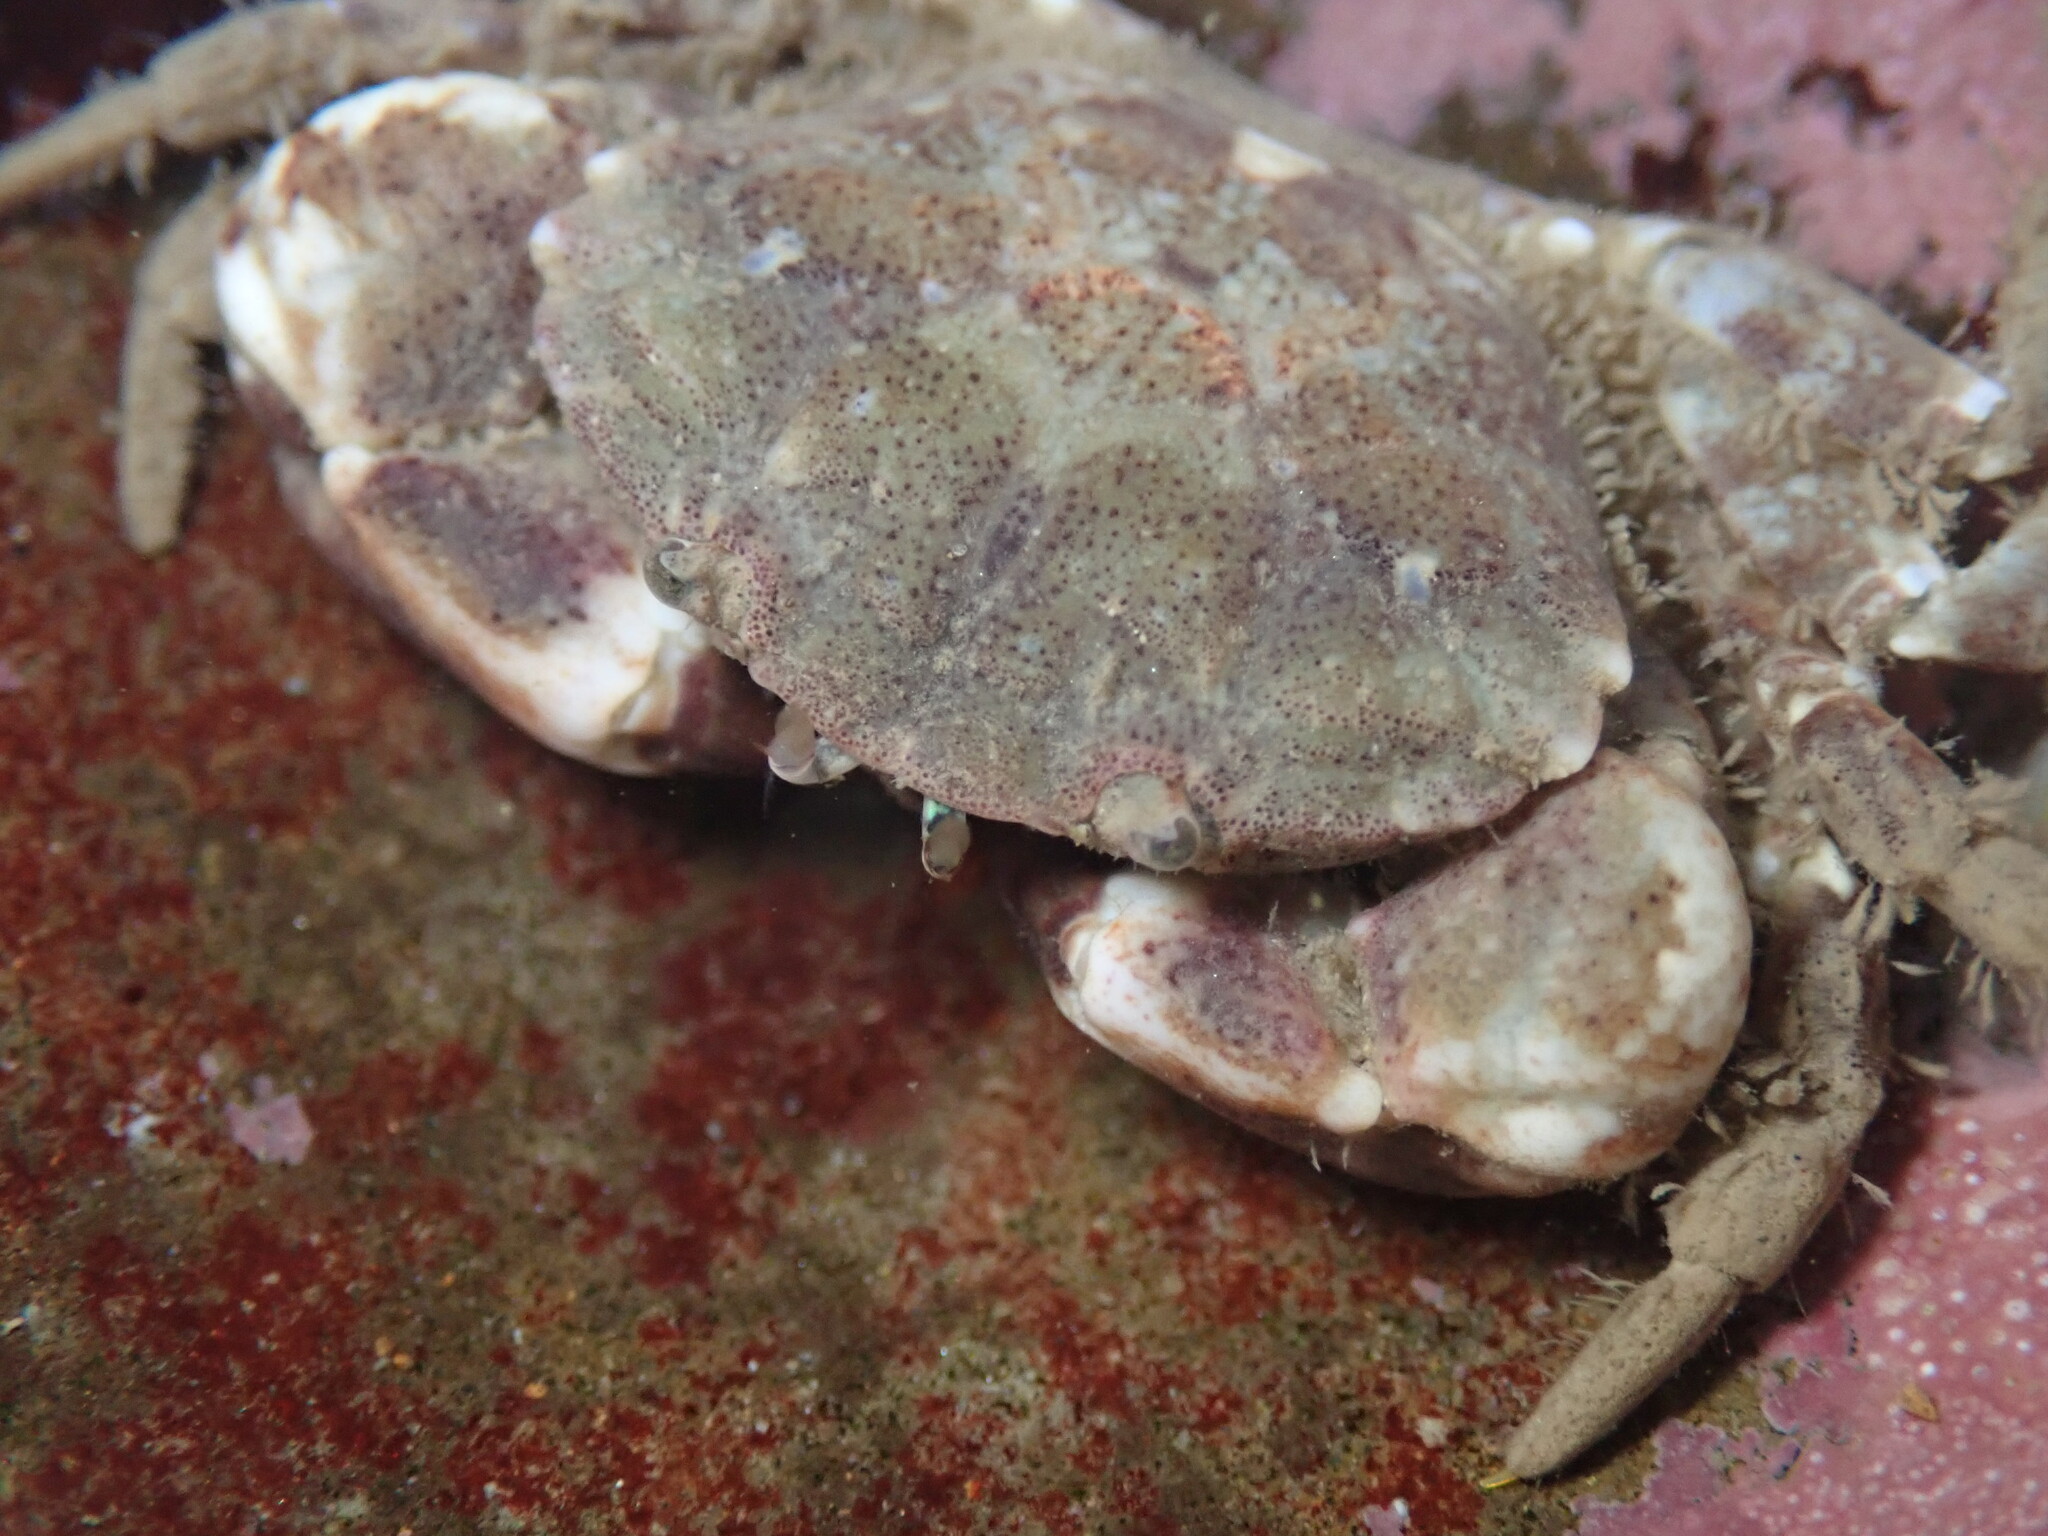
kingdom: Animalia
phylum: Arthropoda
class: Malacostraca
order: Decapoda
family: Panopeidae
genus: Lophopanopeus
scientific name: Lophopanopeus bellus
